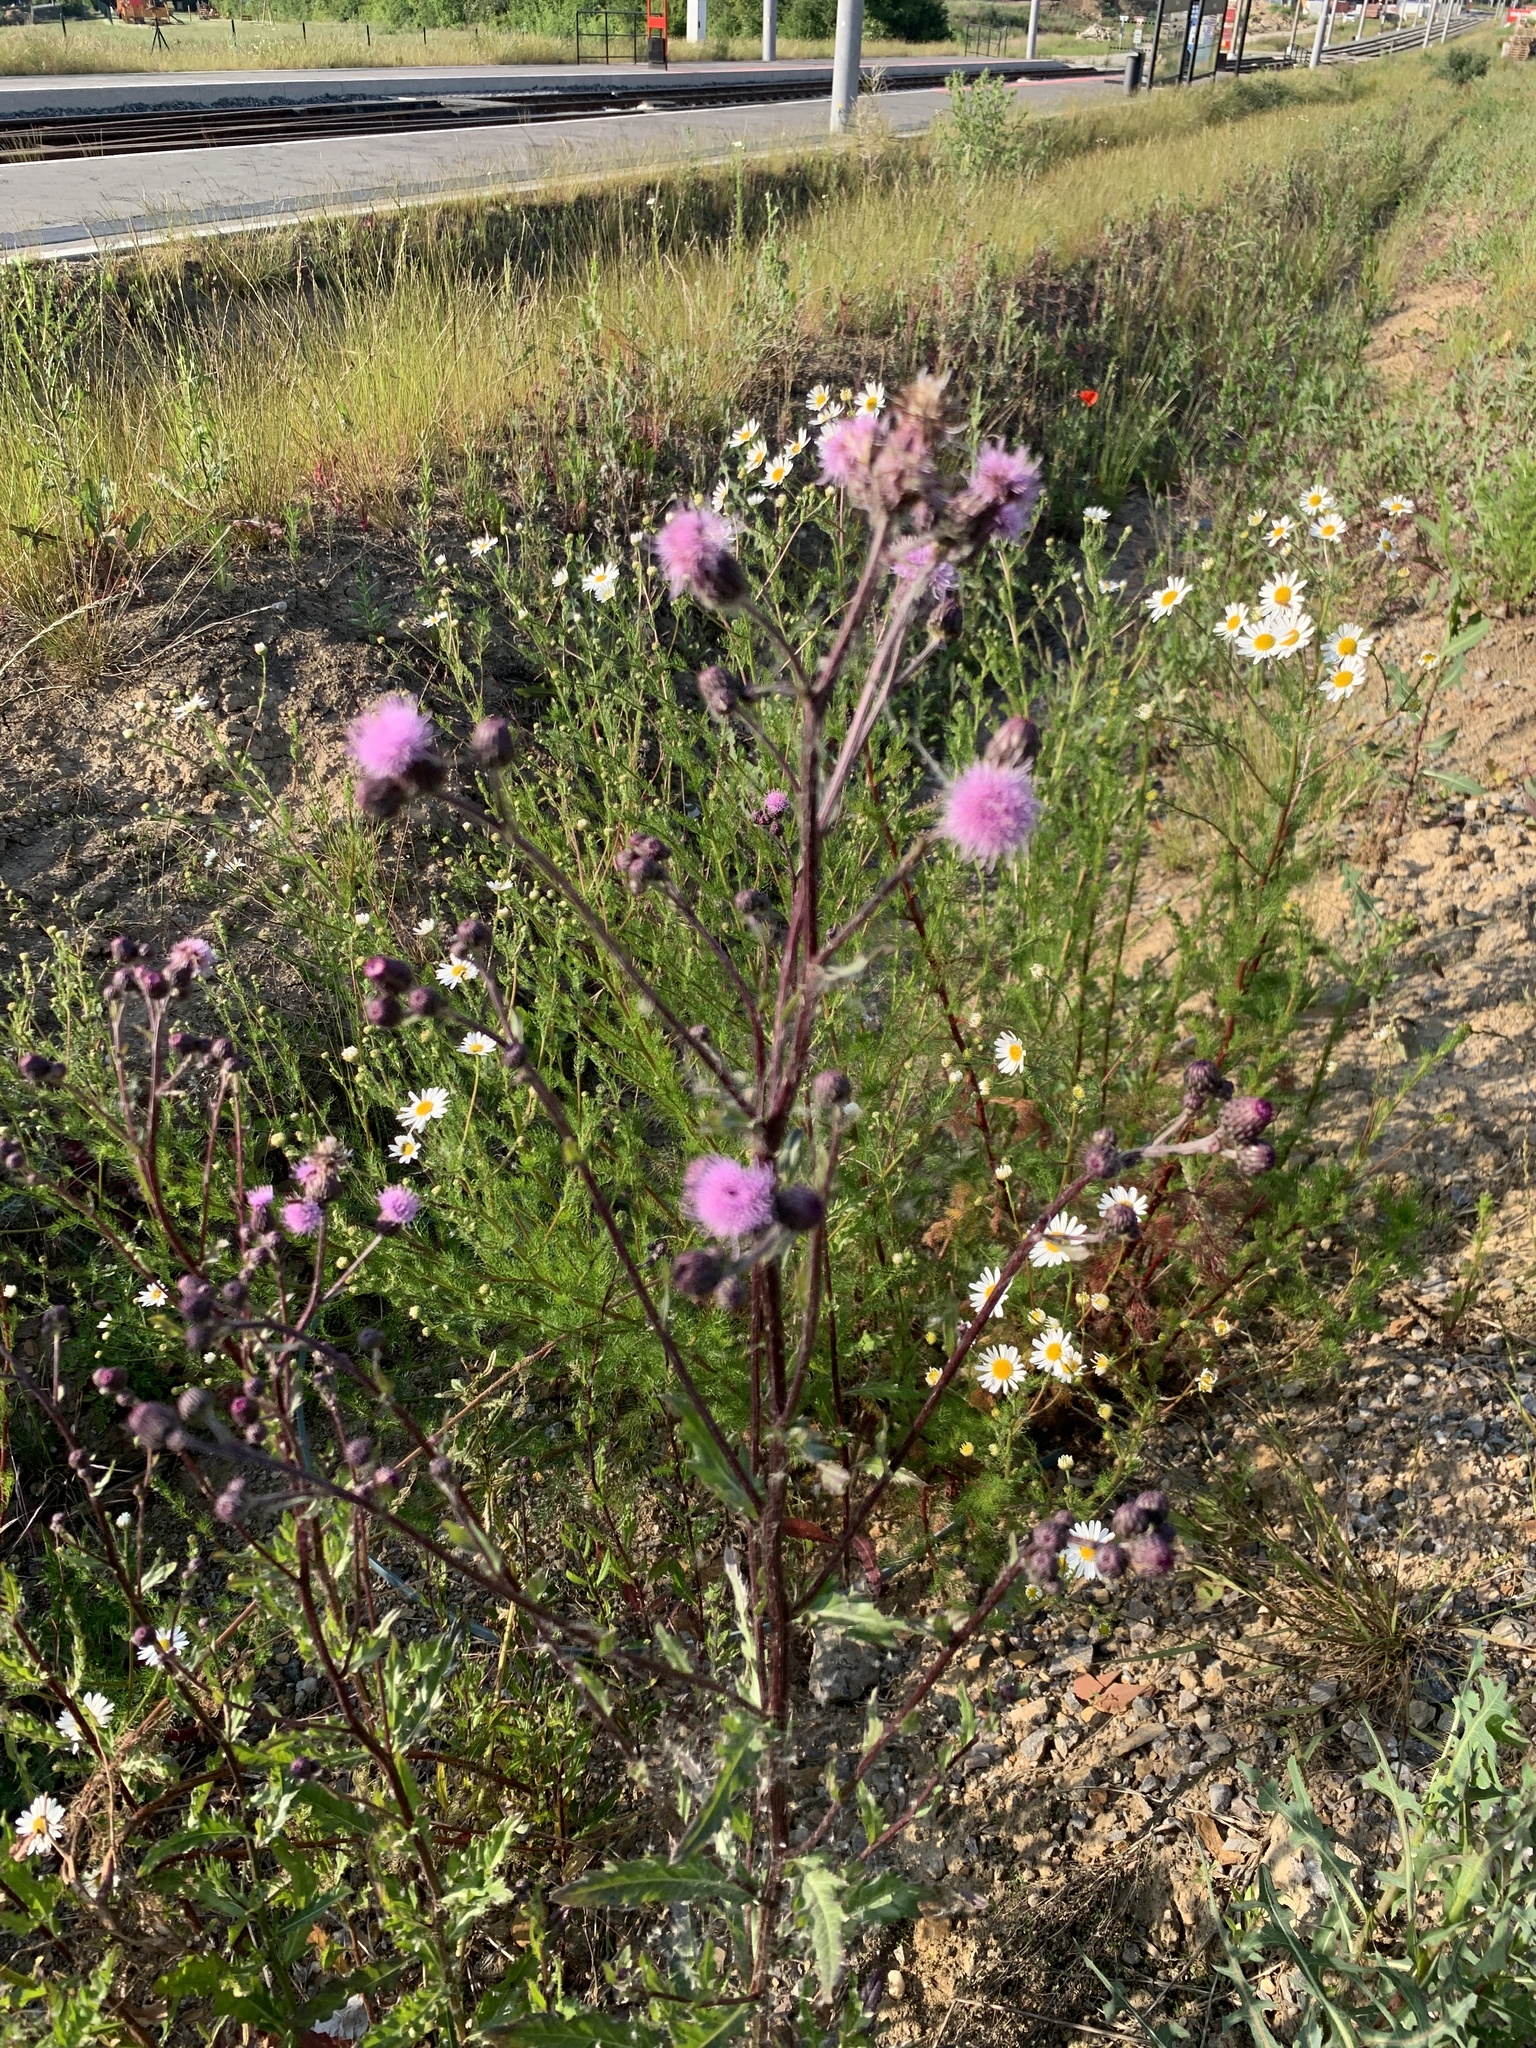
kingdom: Plantae
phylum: Tracheophyta
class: Magnoliopsida
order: Asterales
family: Asteraceae
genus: Cirsium
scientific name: Cirsium arvense
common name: Creeping thistle
